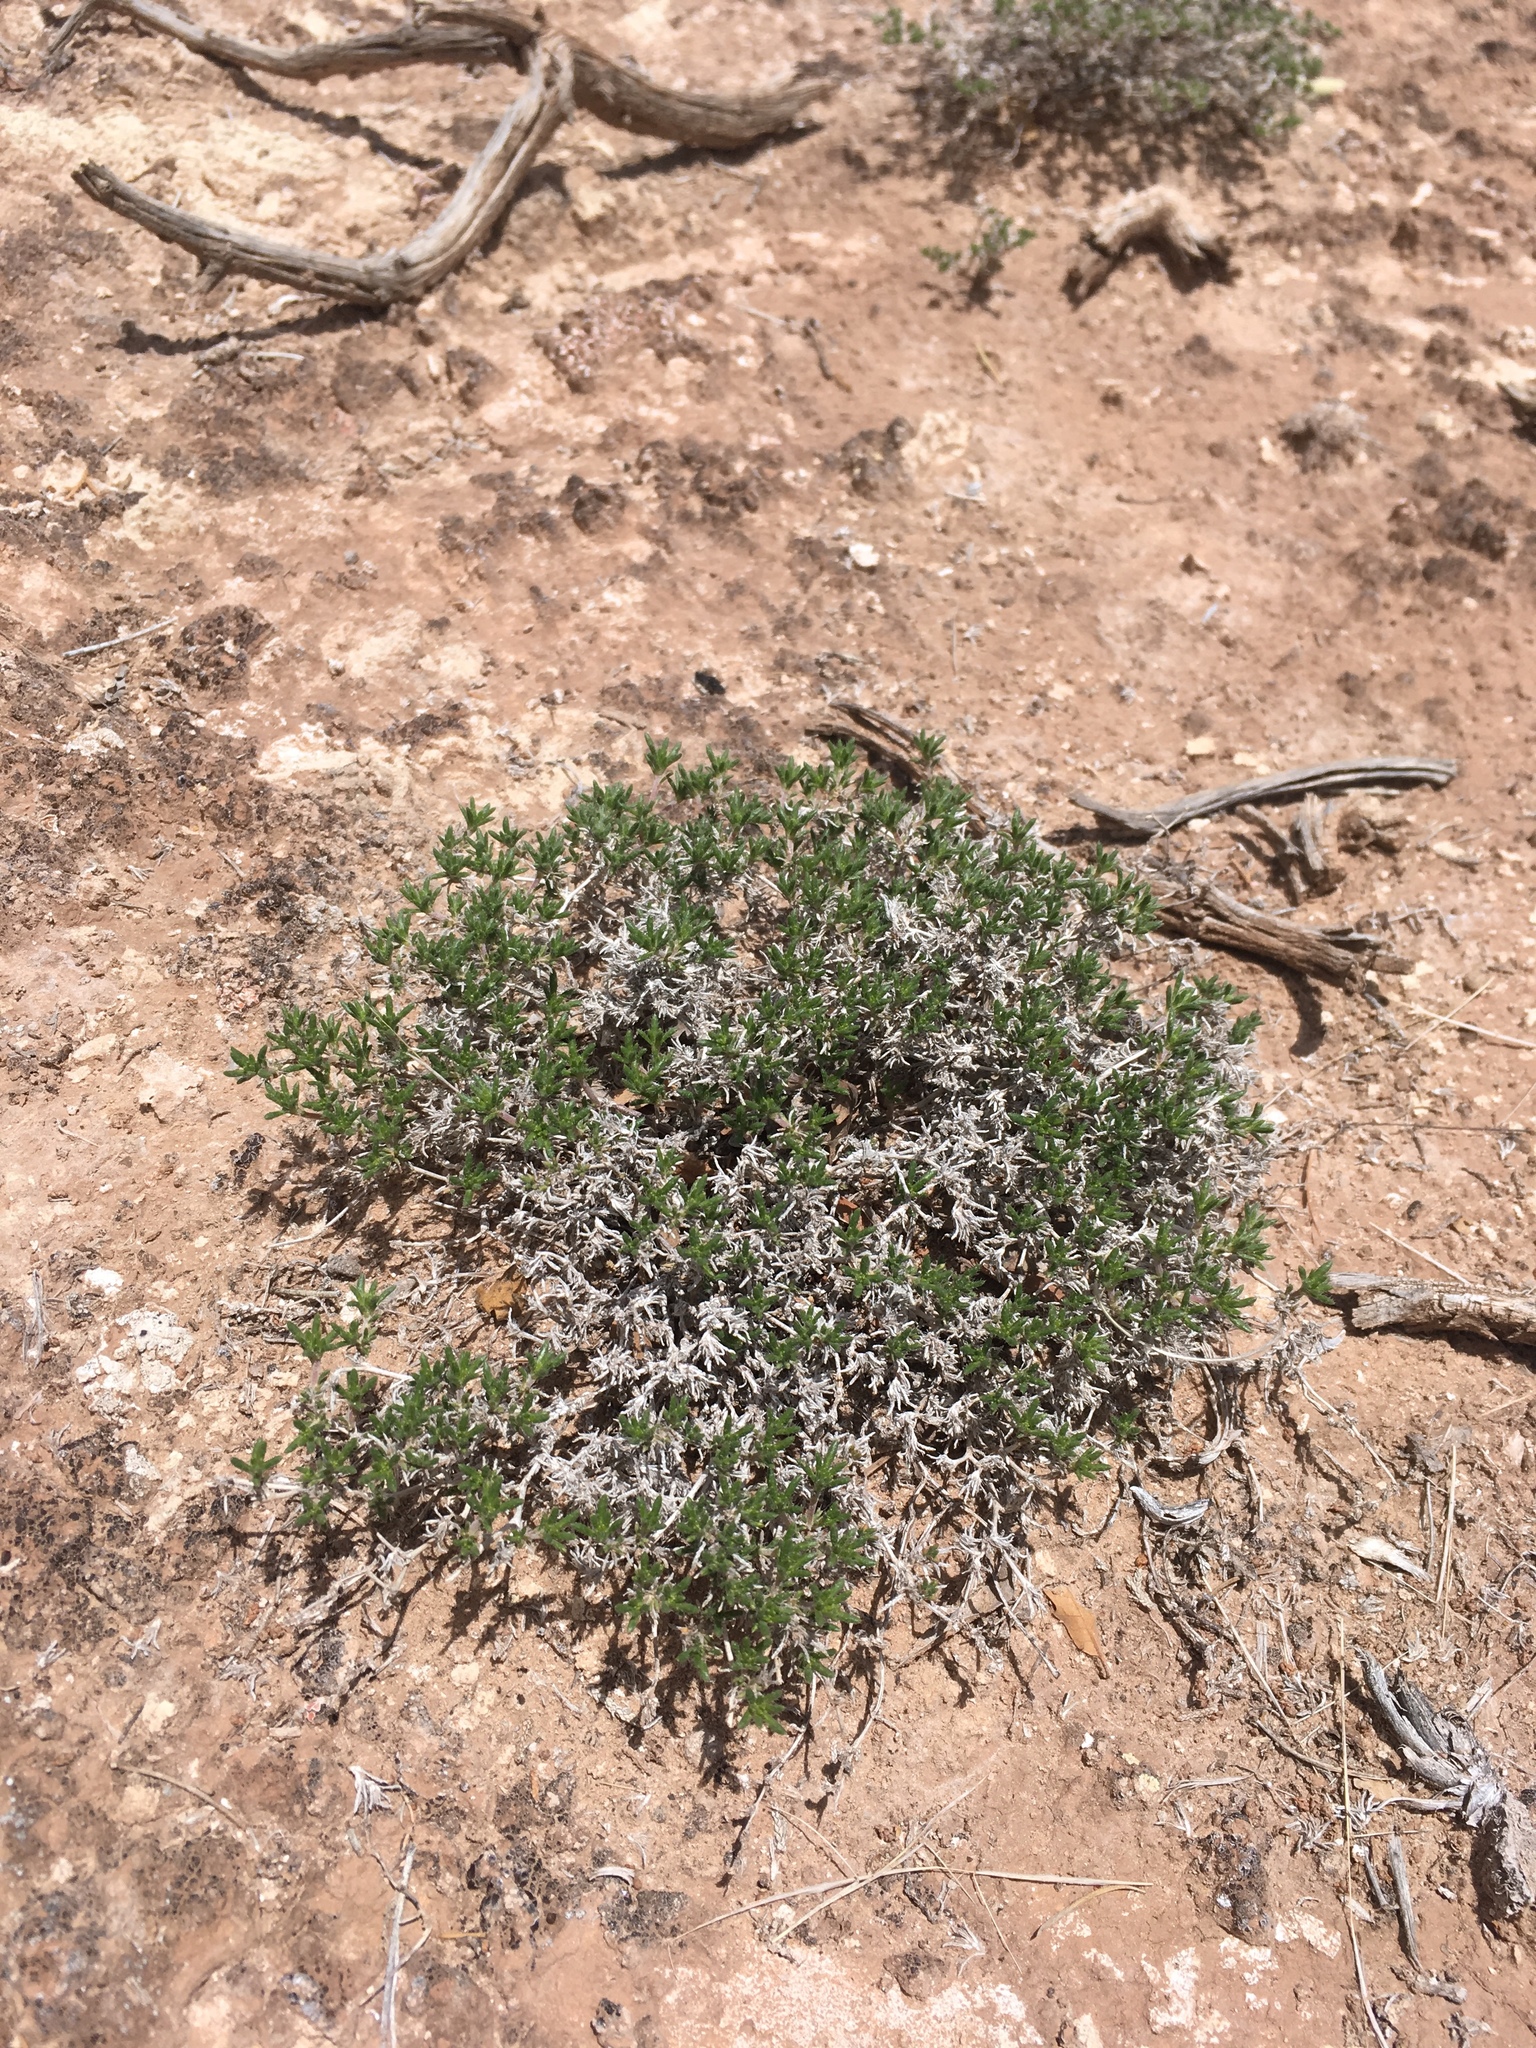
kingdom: Plantae
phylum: Tracheophyta
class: Magnoliopsida
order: Boraginales
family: Ehretiaceae
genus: Tiquilia
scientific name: Tiquilia hispidissima
